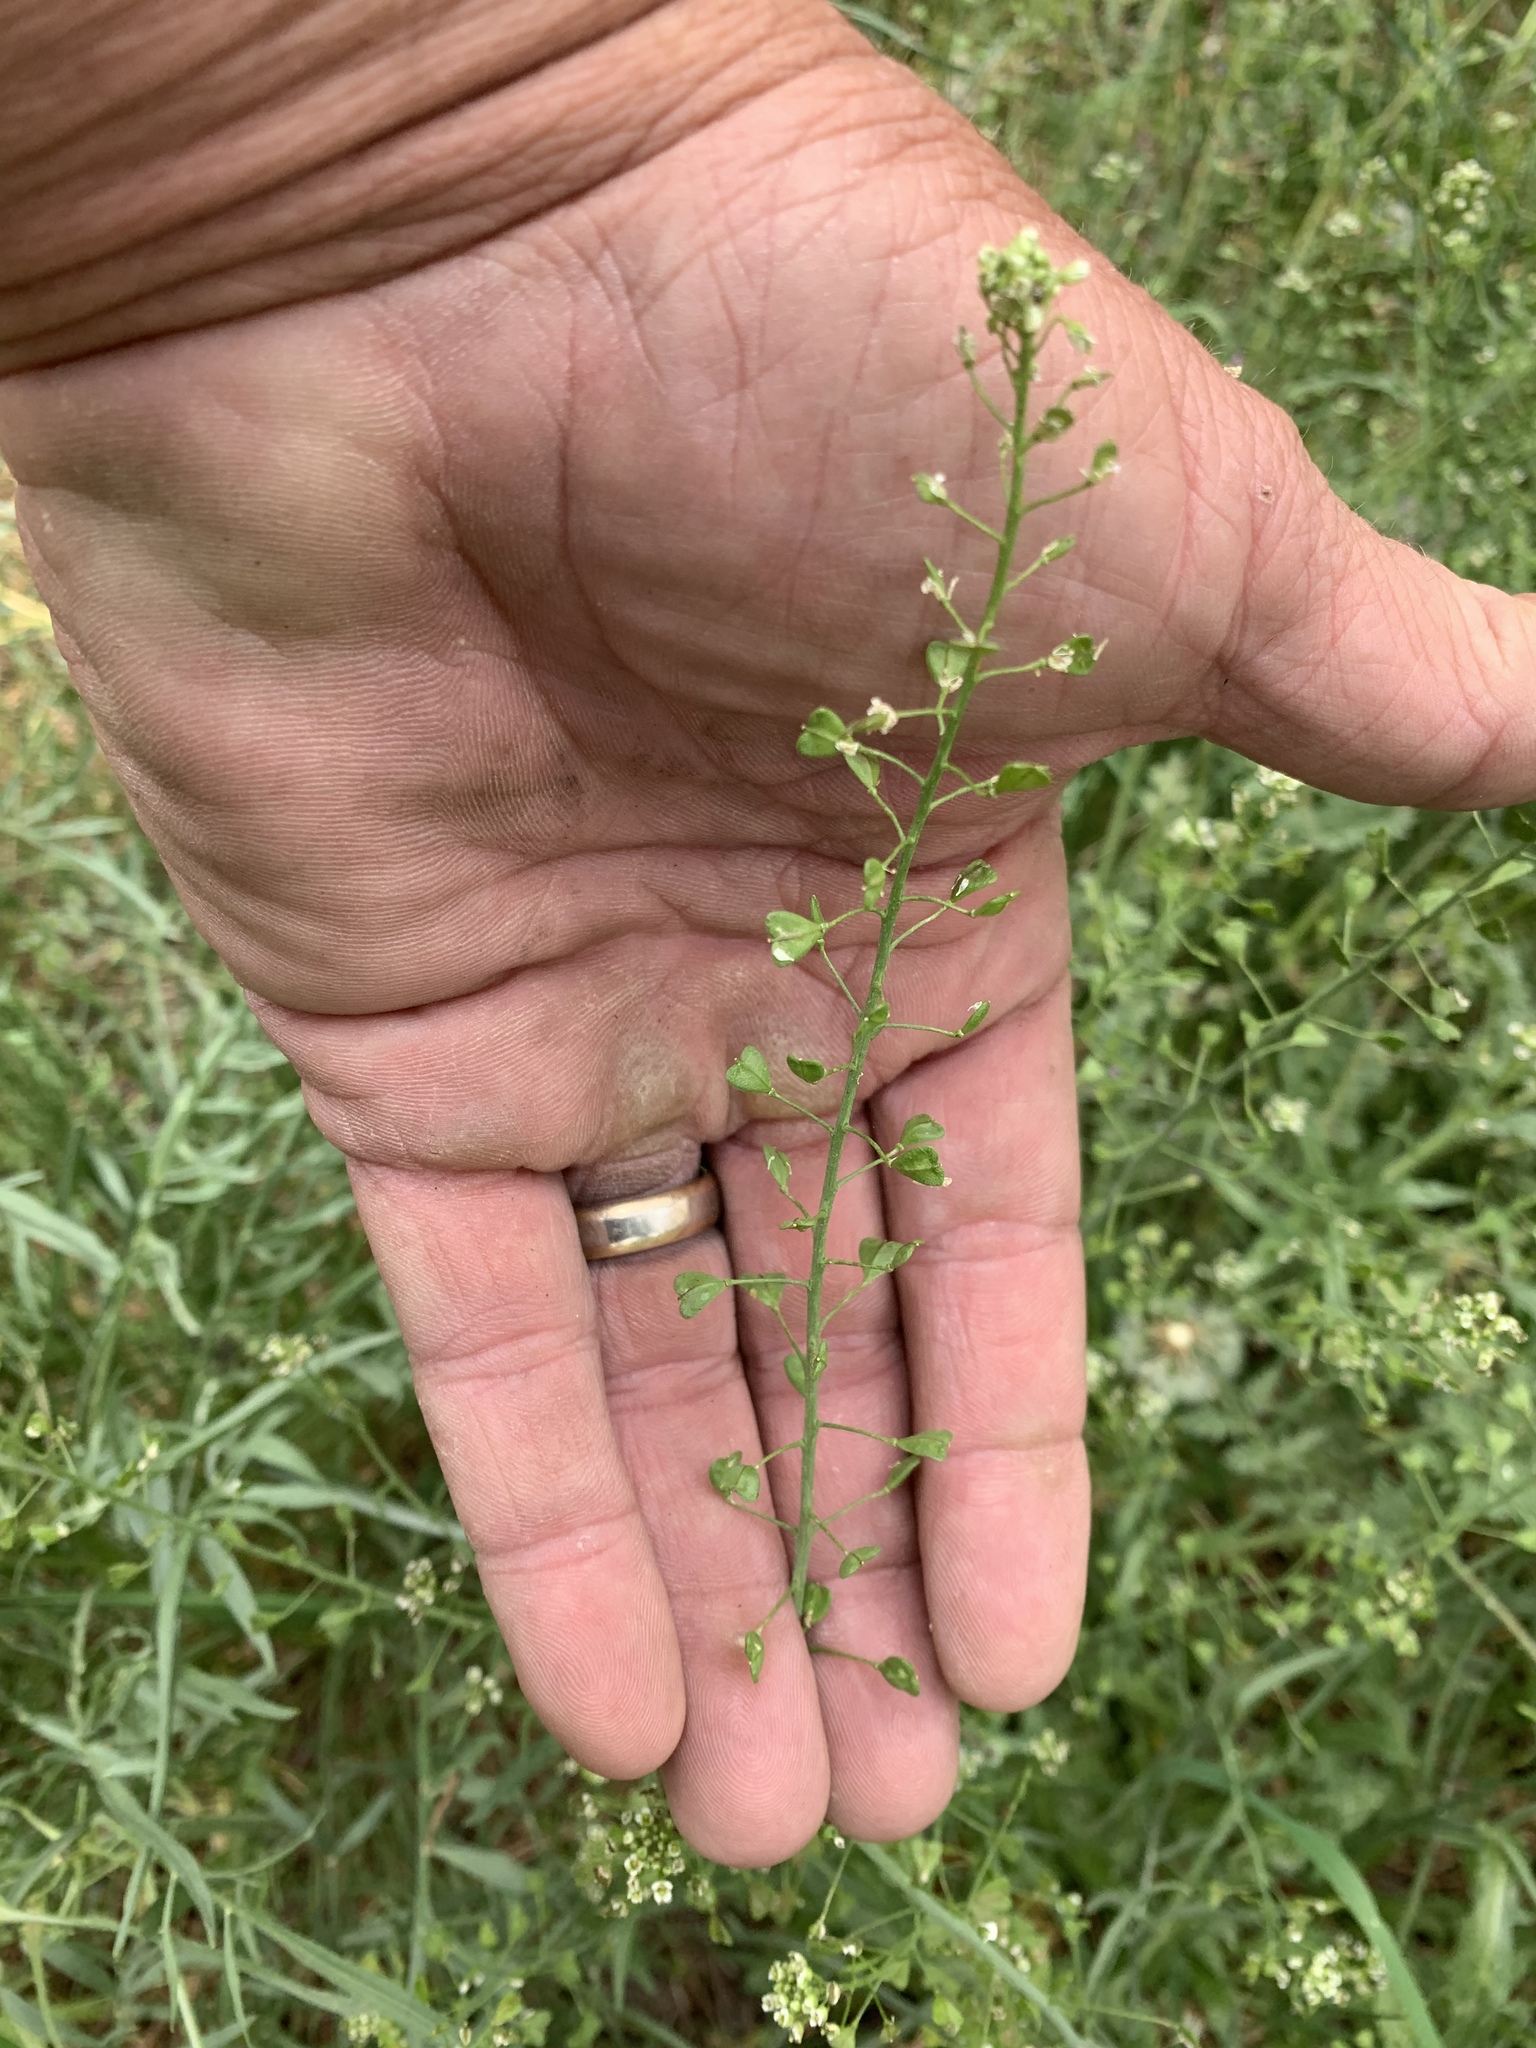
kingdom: Plantae
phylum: Tracheophyta
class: Magnoliopsida
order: Brassicales
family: Brassicaceae
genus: Capsella
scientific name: Capsella bursa-pastoris
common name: Shepherd's purse
